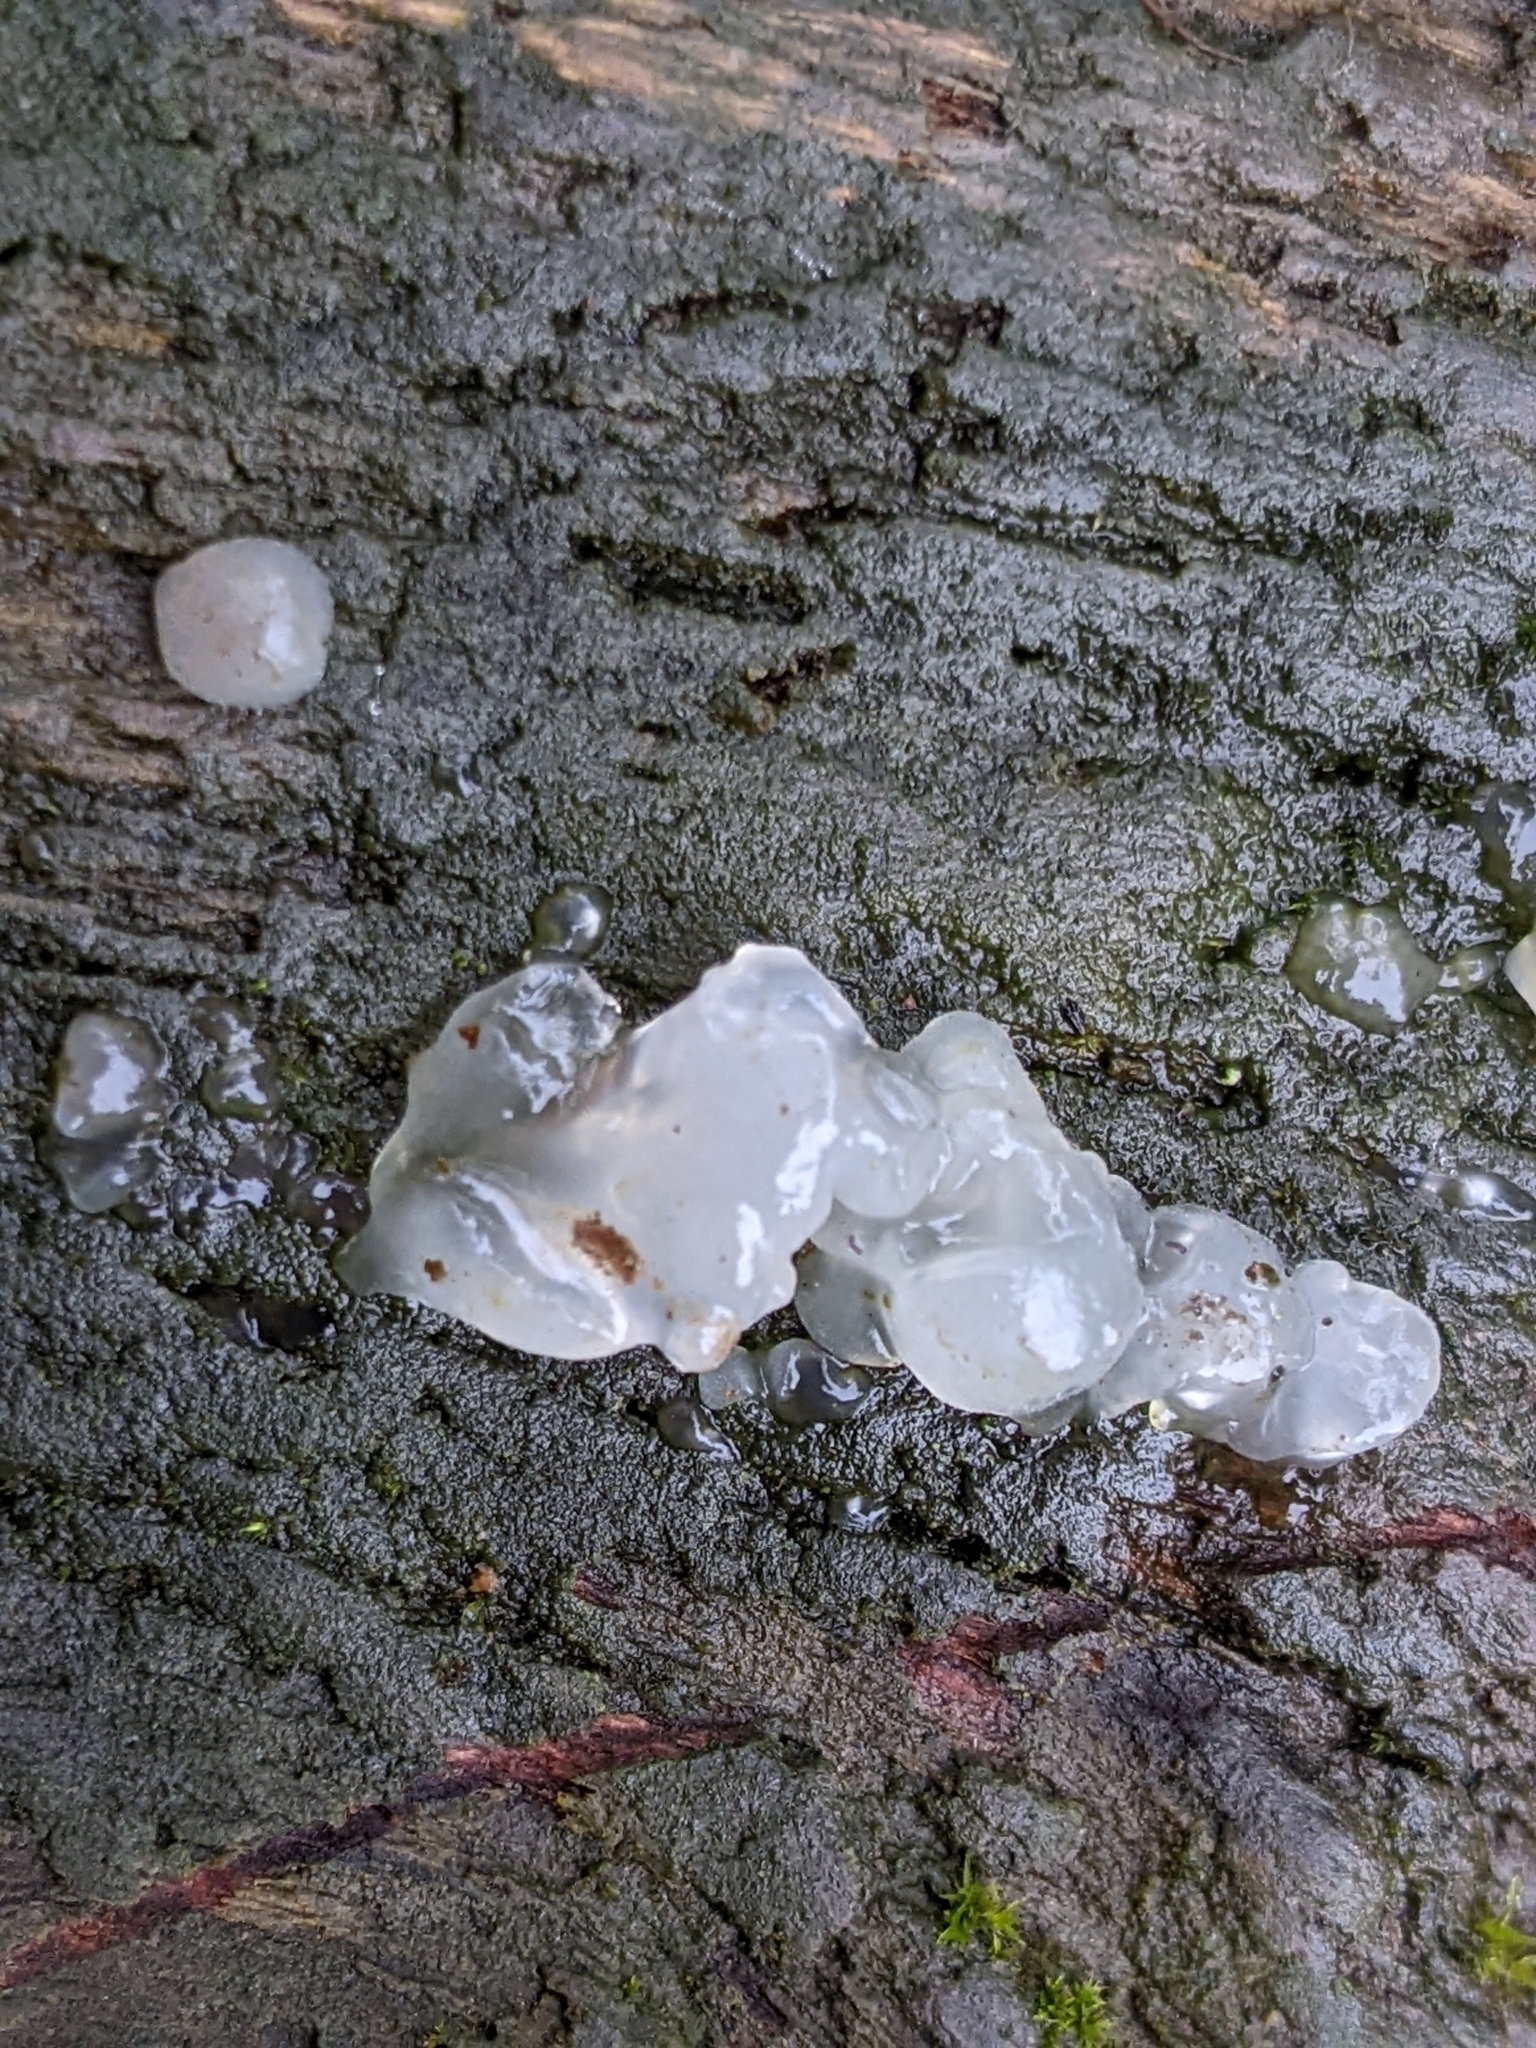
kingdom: Fungi
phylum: Basidiomycota
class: Agaricomycetes
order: Auriculariales
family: Hyaloriaceae
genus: Myxarium
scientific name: Myxarium nucleatum
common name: Crystal brain fungus
